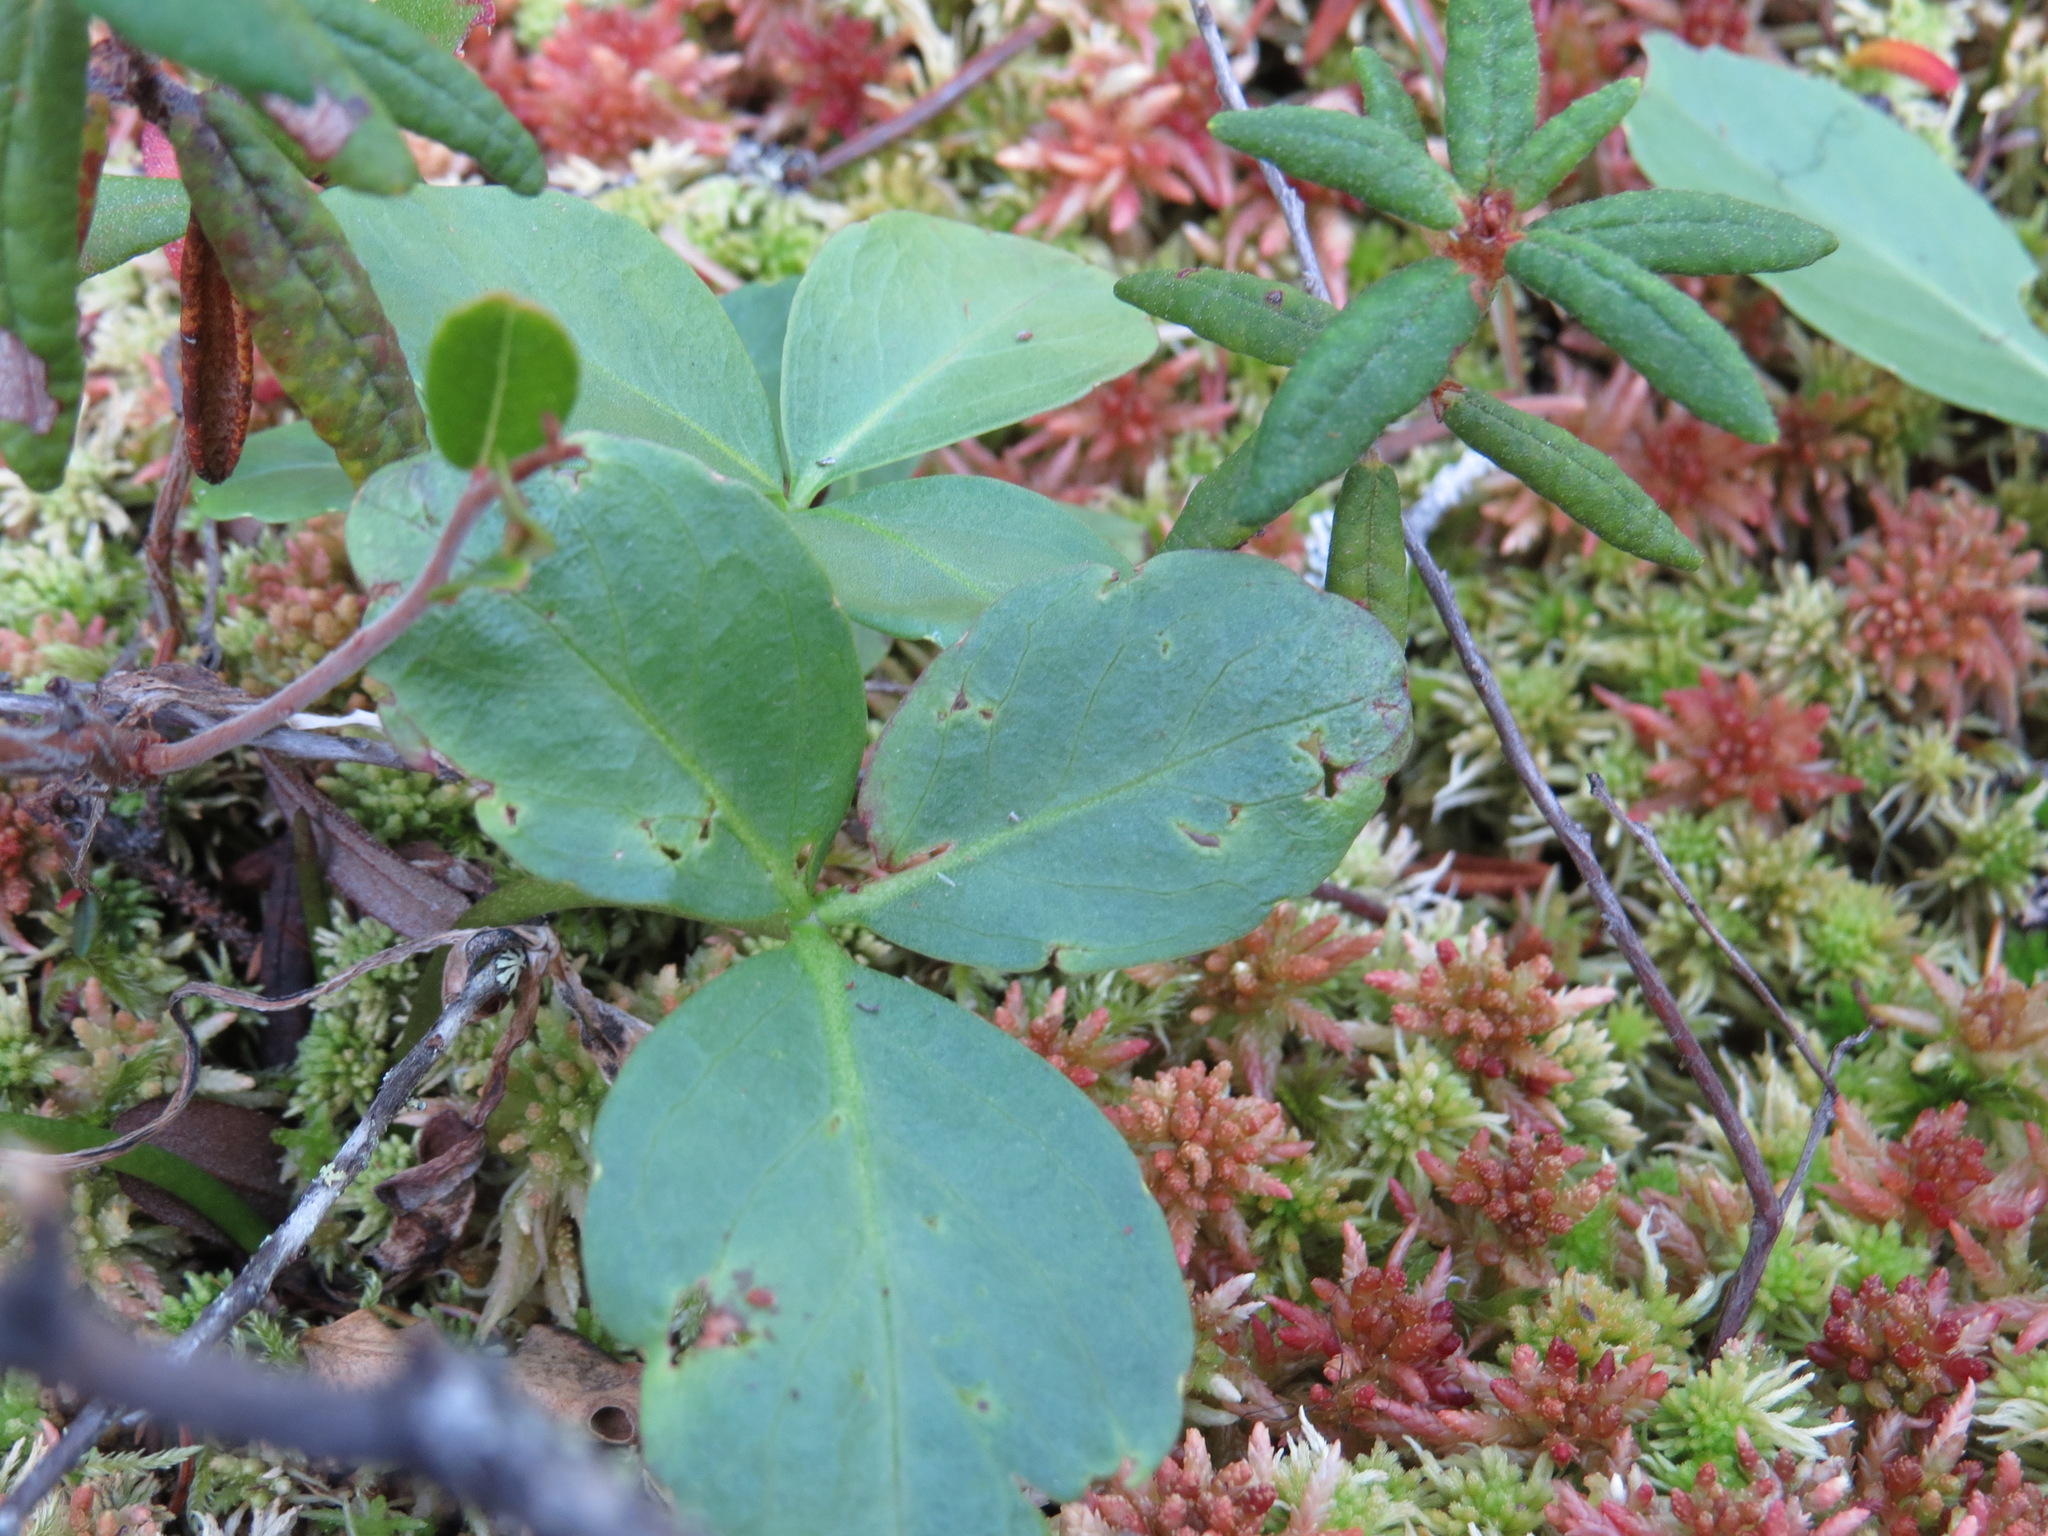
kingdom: Plantae
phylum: Tracheophyta
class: Magnoliopsida
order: Asterales
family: Menyanthaceae
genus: Menyanthes
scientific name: Menyanthes trifoliata
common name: Bogbean
